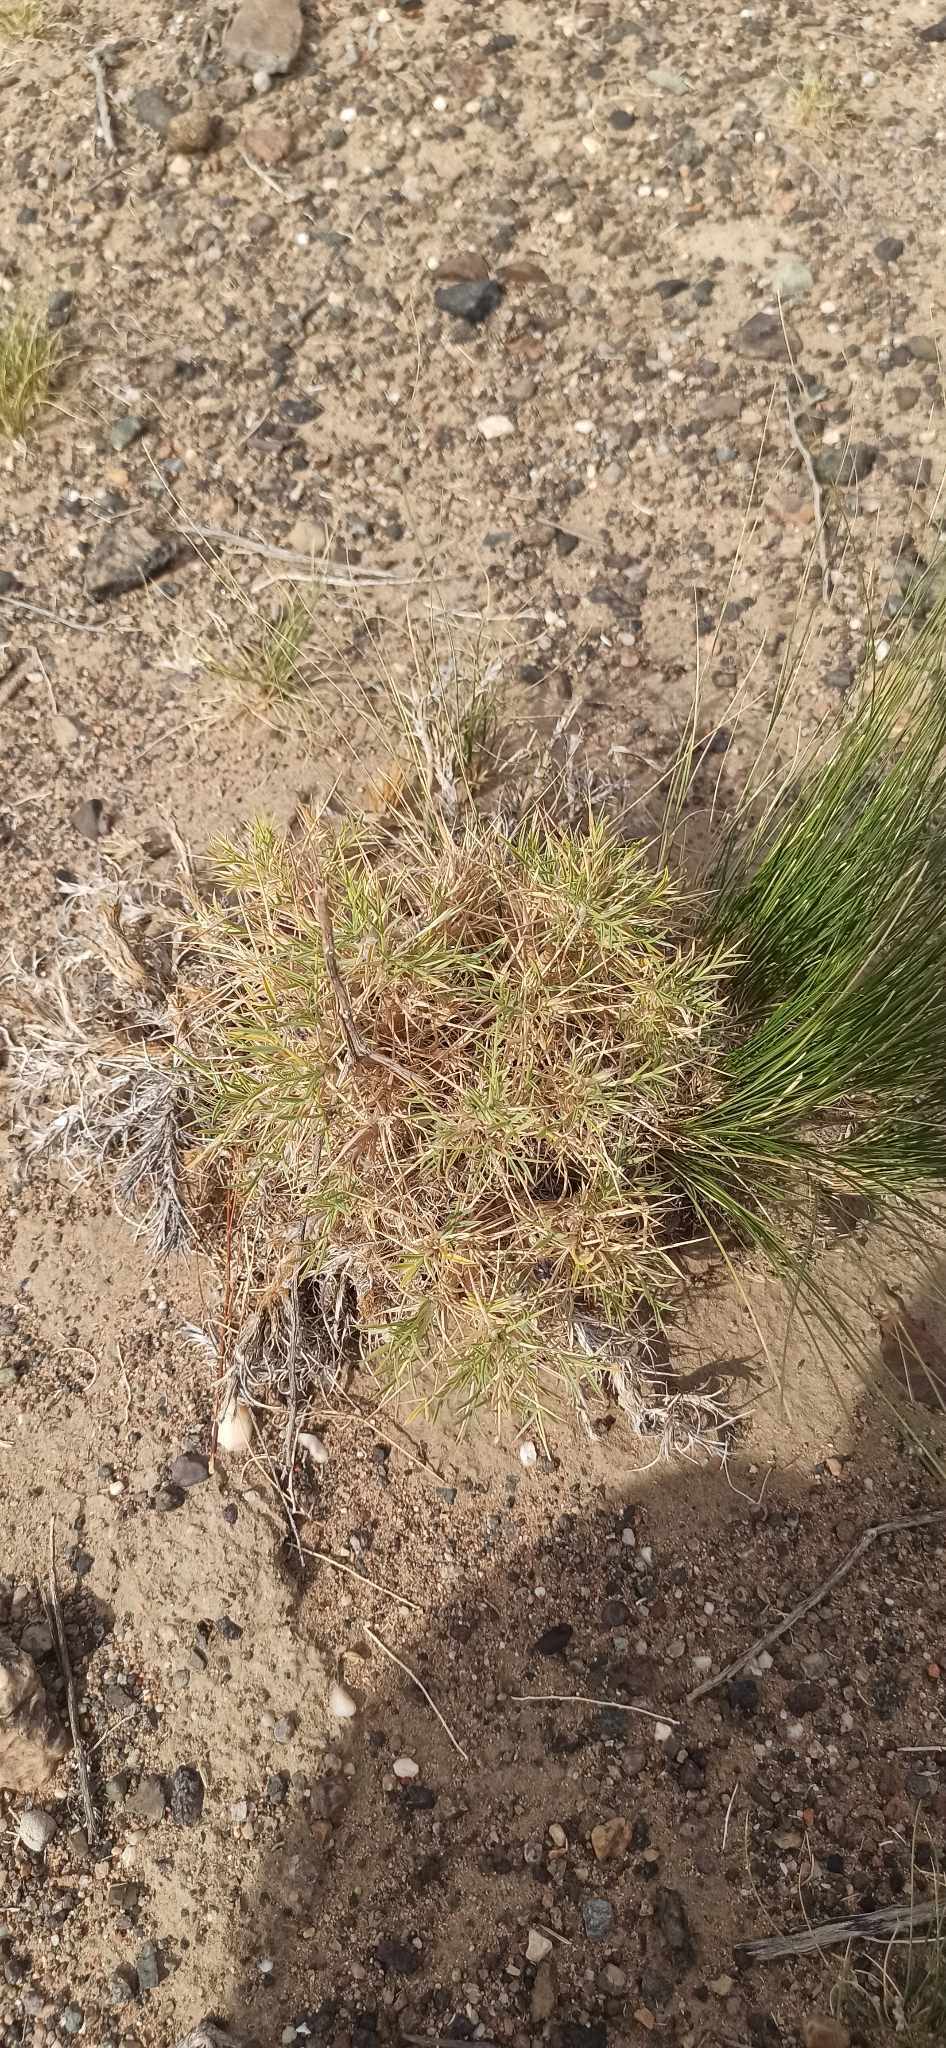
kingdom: Plantae
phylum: Tracheophyta
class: Magnoliopsida
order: Fabales
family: Fabaceae
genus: Oxytropis
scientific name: Oxytropis aciphylla
